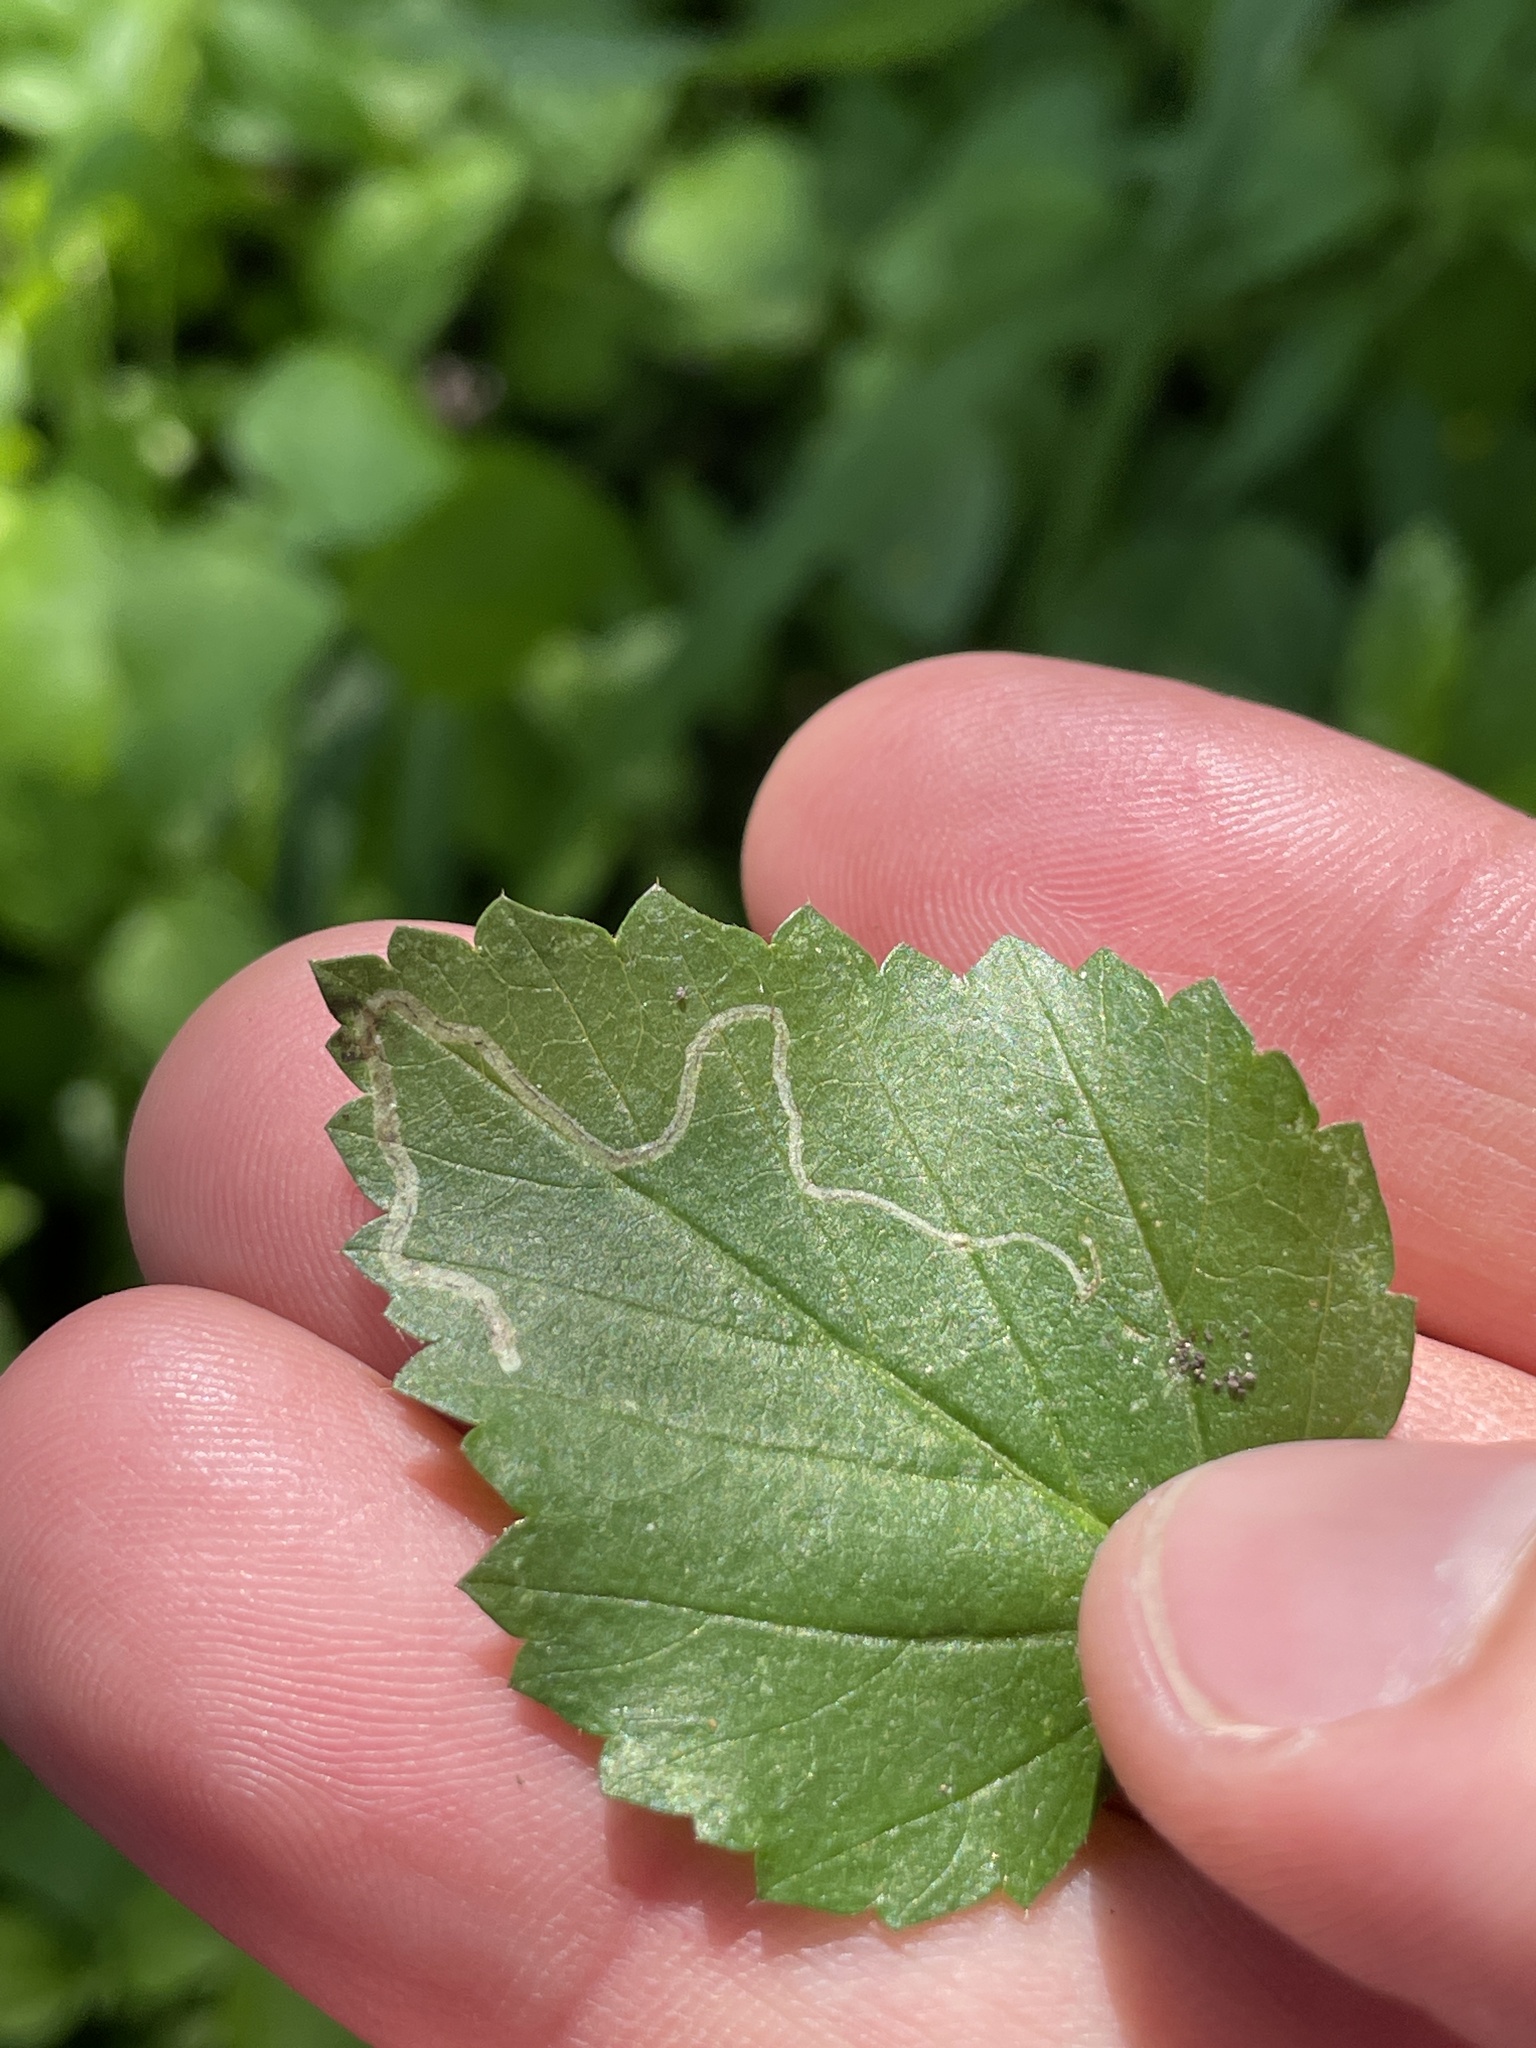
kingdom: Animalia
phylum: Arthropoda
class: Insecta
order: Diptera
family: Agromyzidae
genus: Calycomyza
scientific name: Calycomyza malvae
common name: Mallow leaf miner
